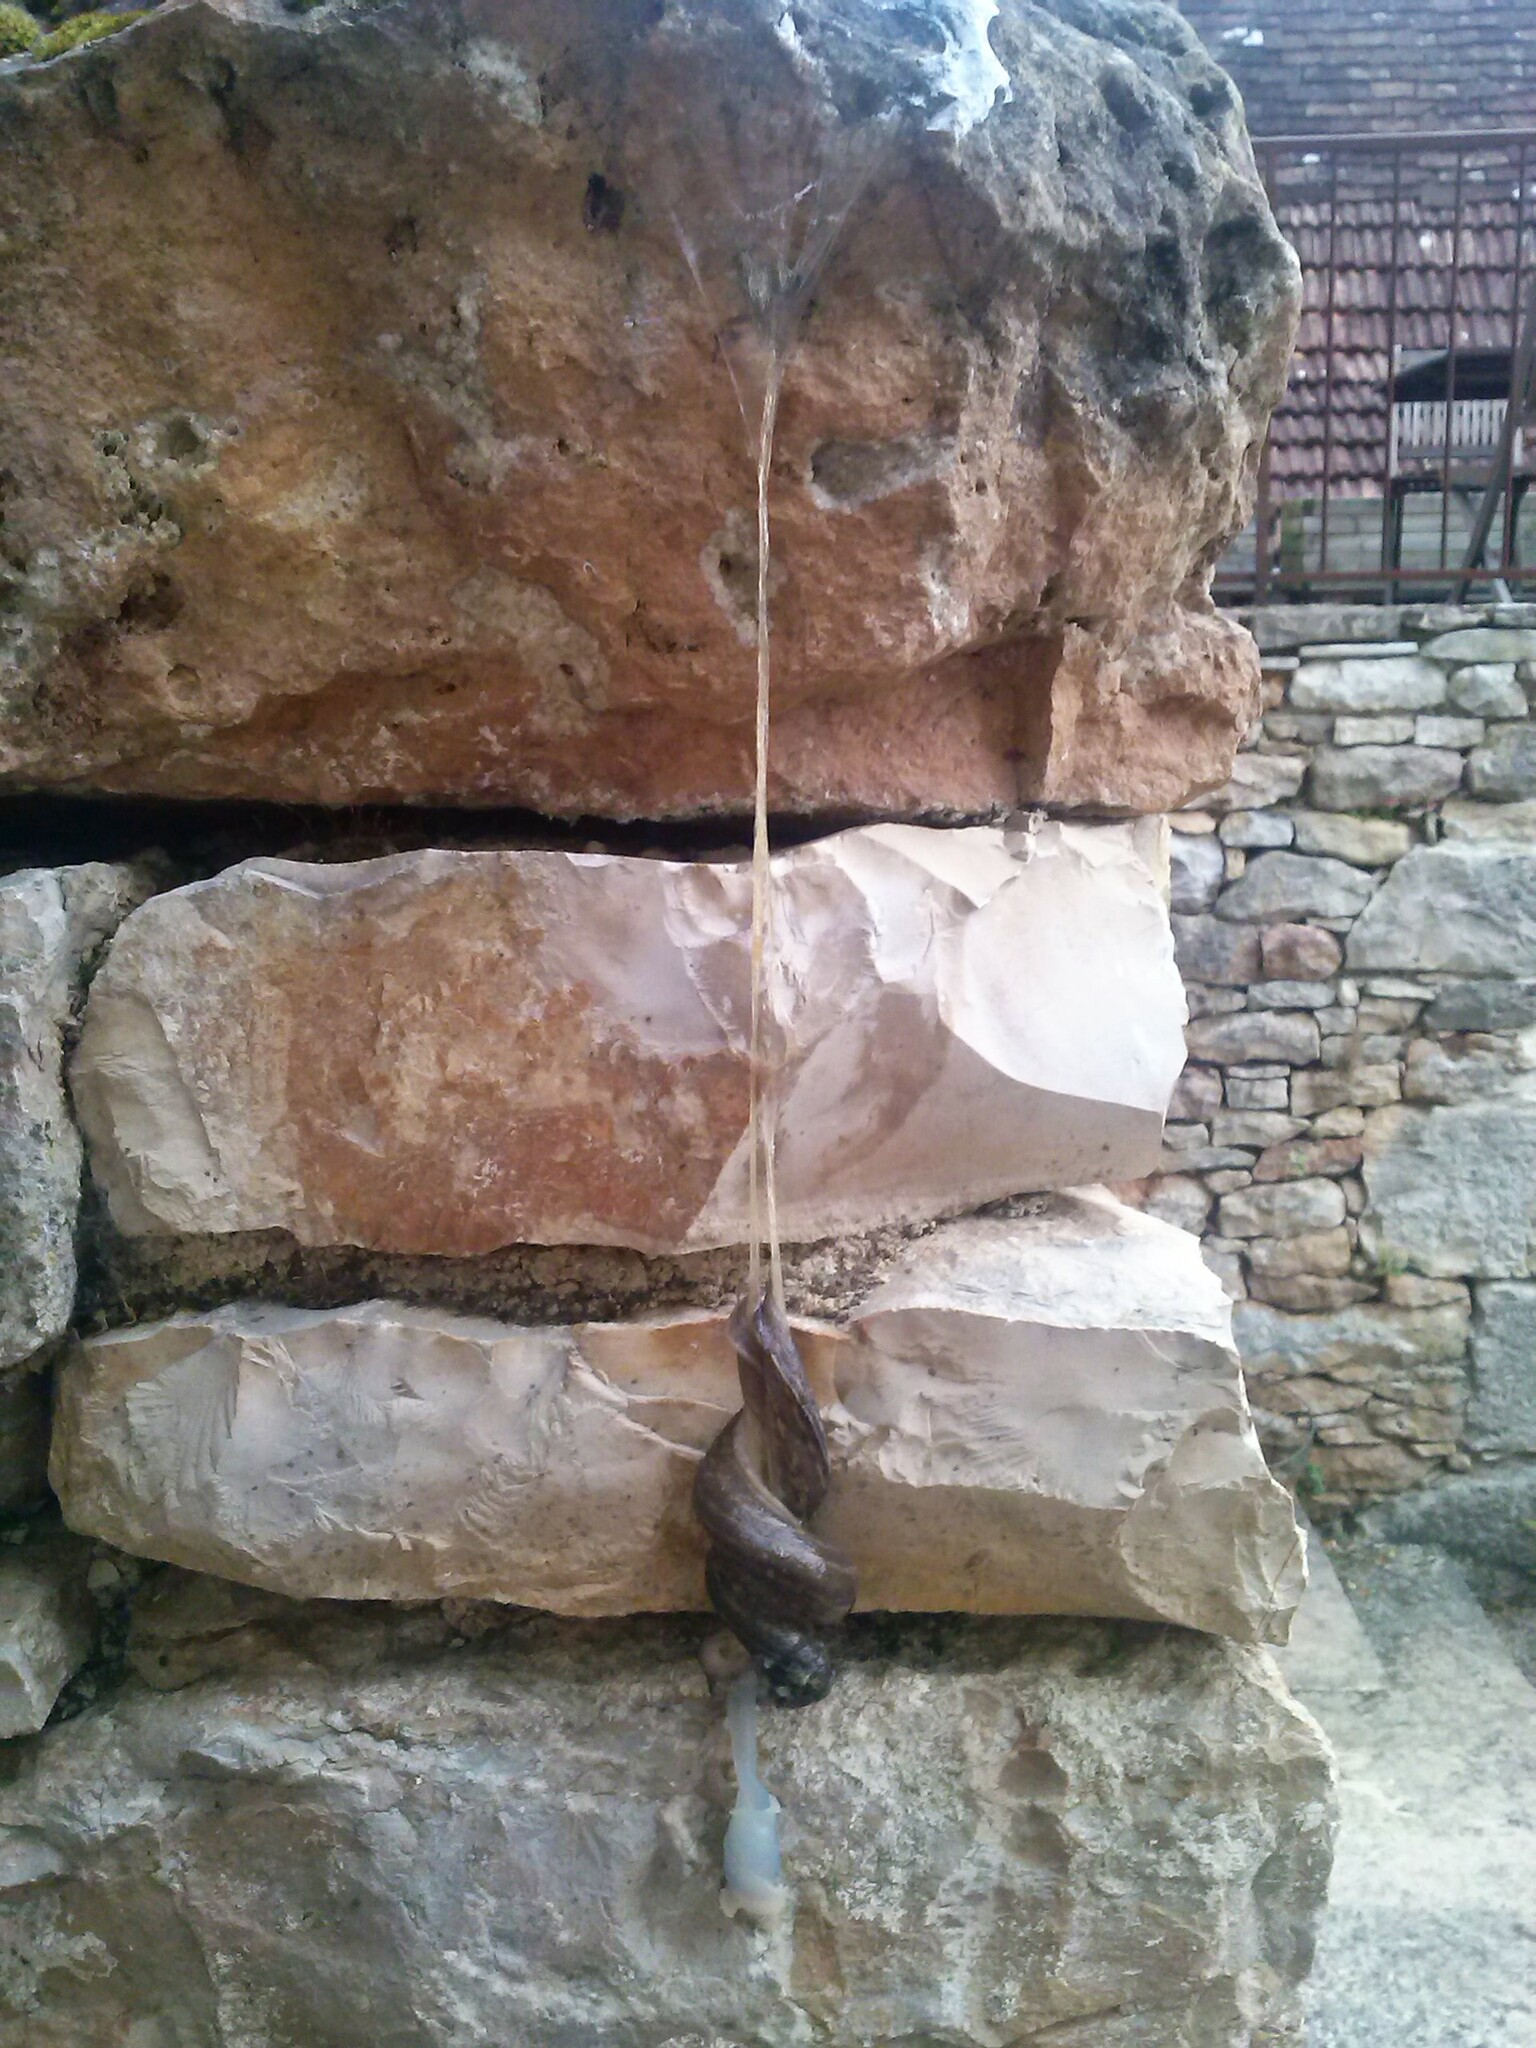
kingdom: Animalia
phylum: Mollusca
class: Gastropoda
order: Stylommatophora
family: Limacidae
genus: Limax
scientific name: Limax maximus
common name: Great grey slug
